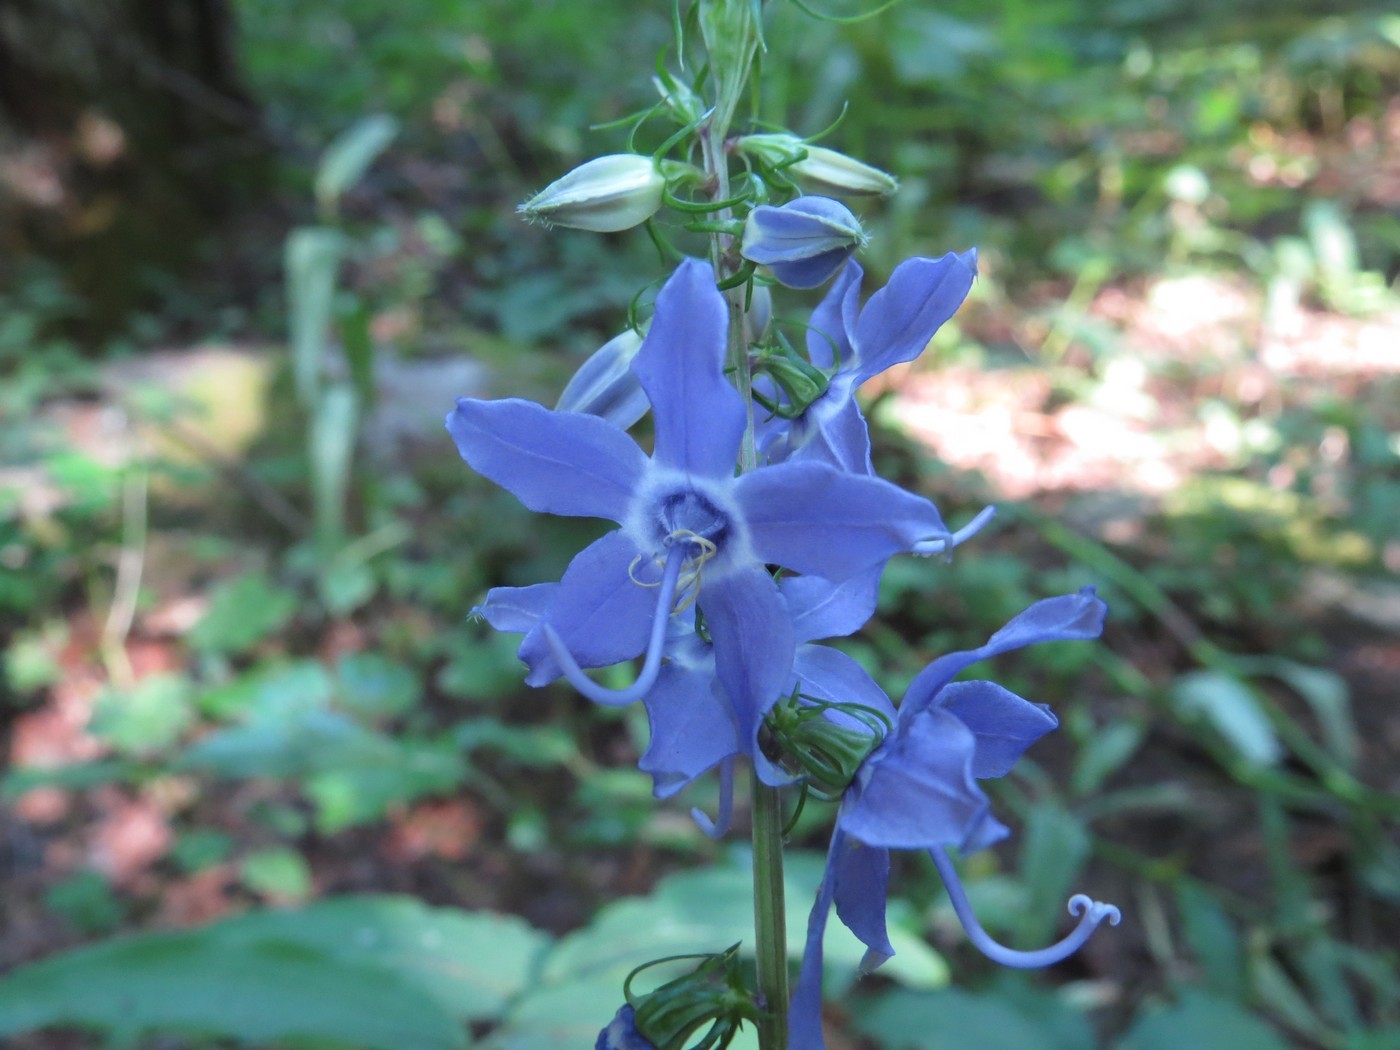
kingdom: Plantae
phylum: Tracheophyta
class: Magnoliopsida
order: Asterales
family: Campanulaceae
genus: Campanulastrum
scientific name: Campanulastrum americanum
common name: American bellflower
